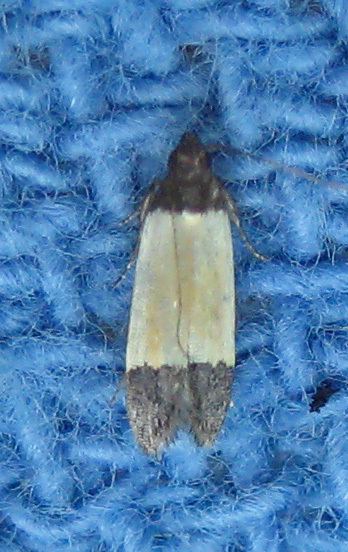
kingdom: Animalia
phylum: Arthropoda
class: Insecta
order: Lepidoptera
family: Gelechiidae
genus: Anacampsis
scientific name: Anacampsis coverdalella
